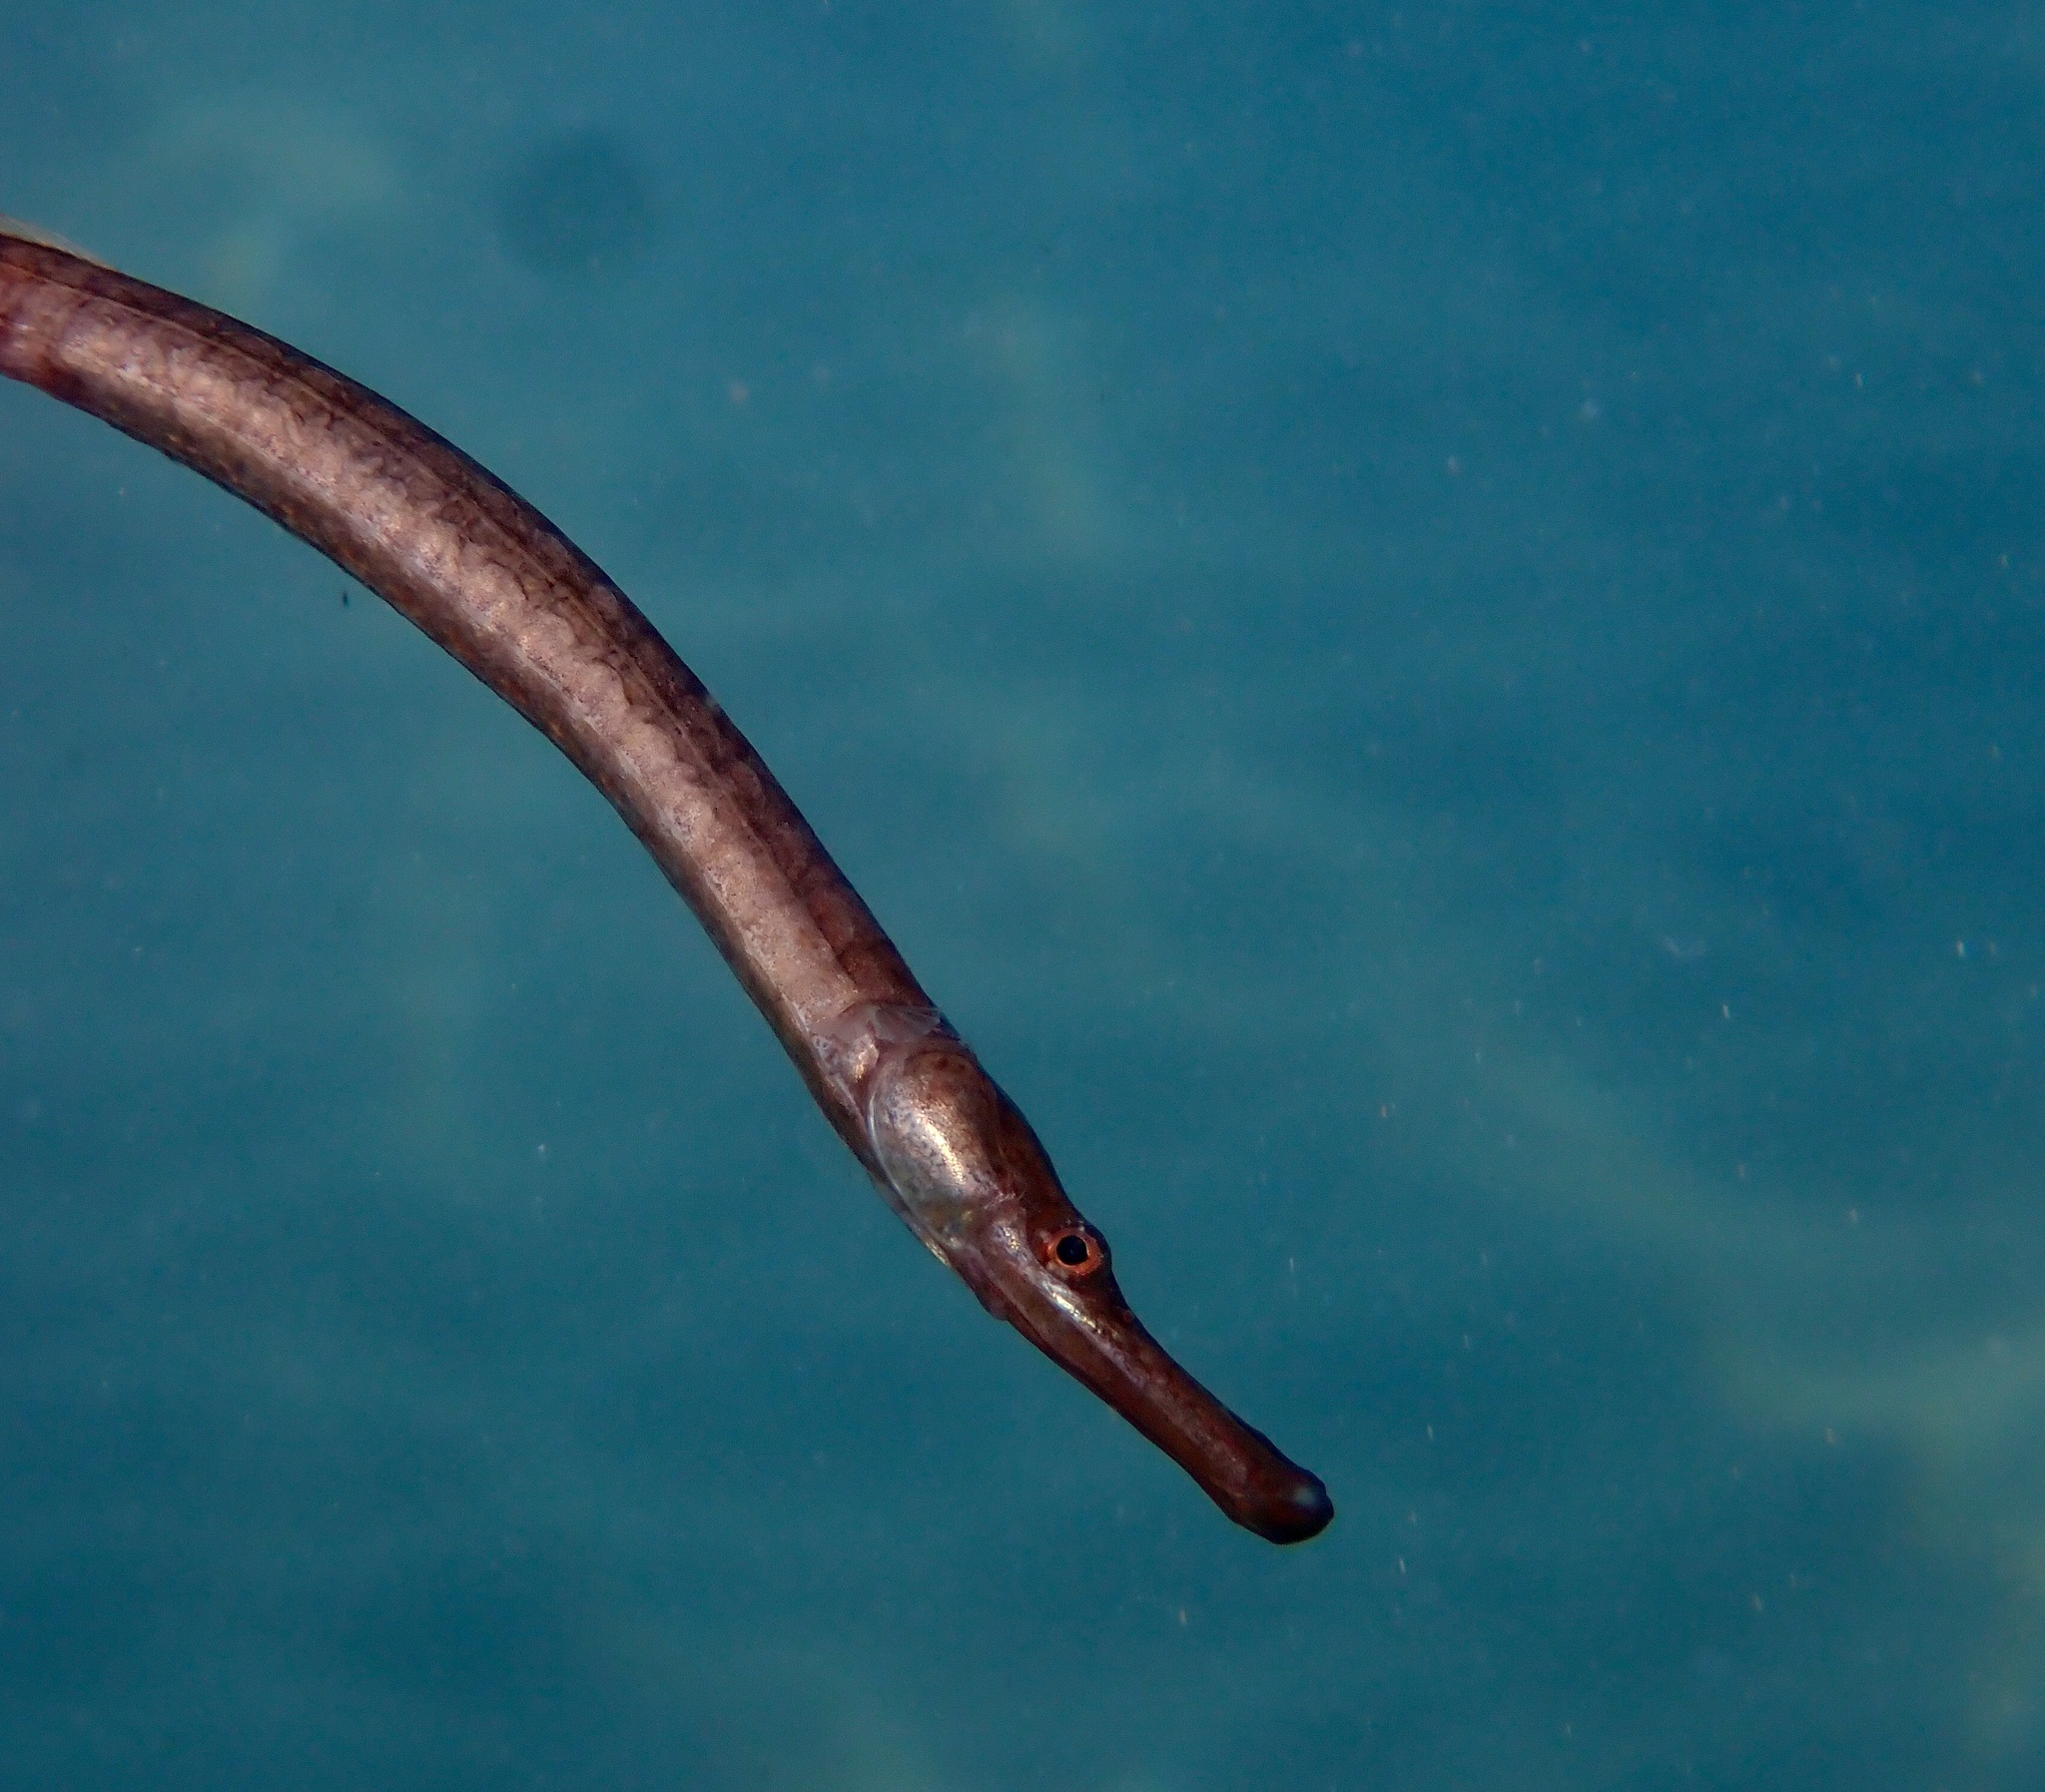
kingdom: Animalia
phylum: Chordata
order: Syngnathiformes
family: Syngnathidae
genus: Syngnathus
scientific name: Syngnathus
